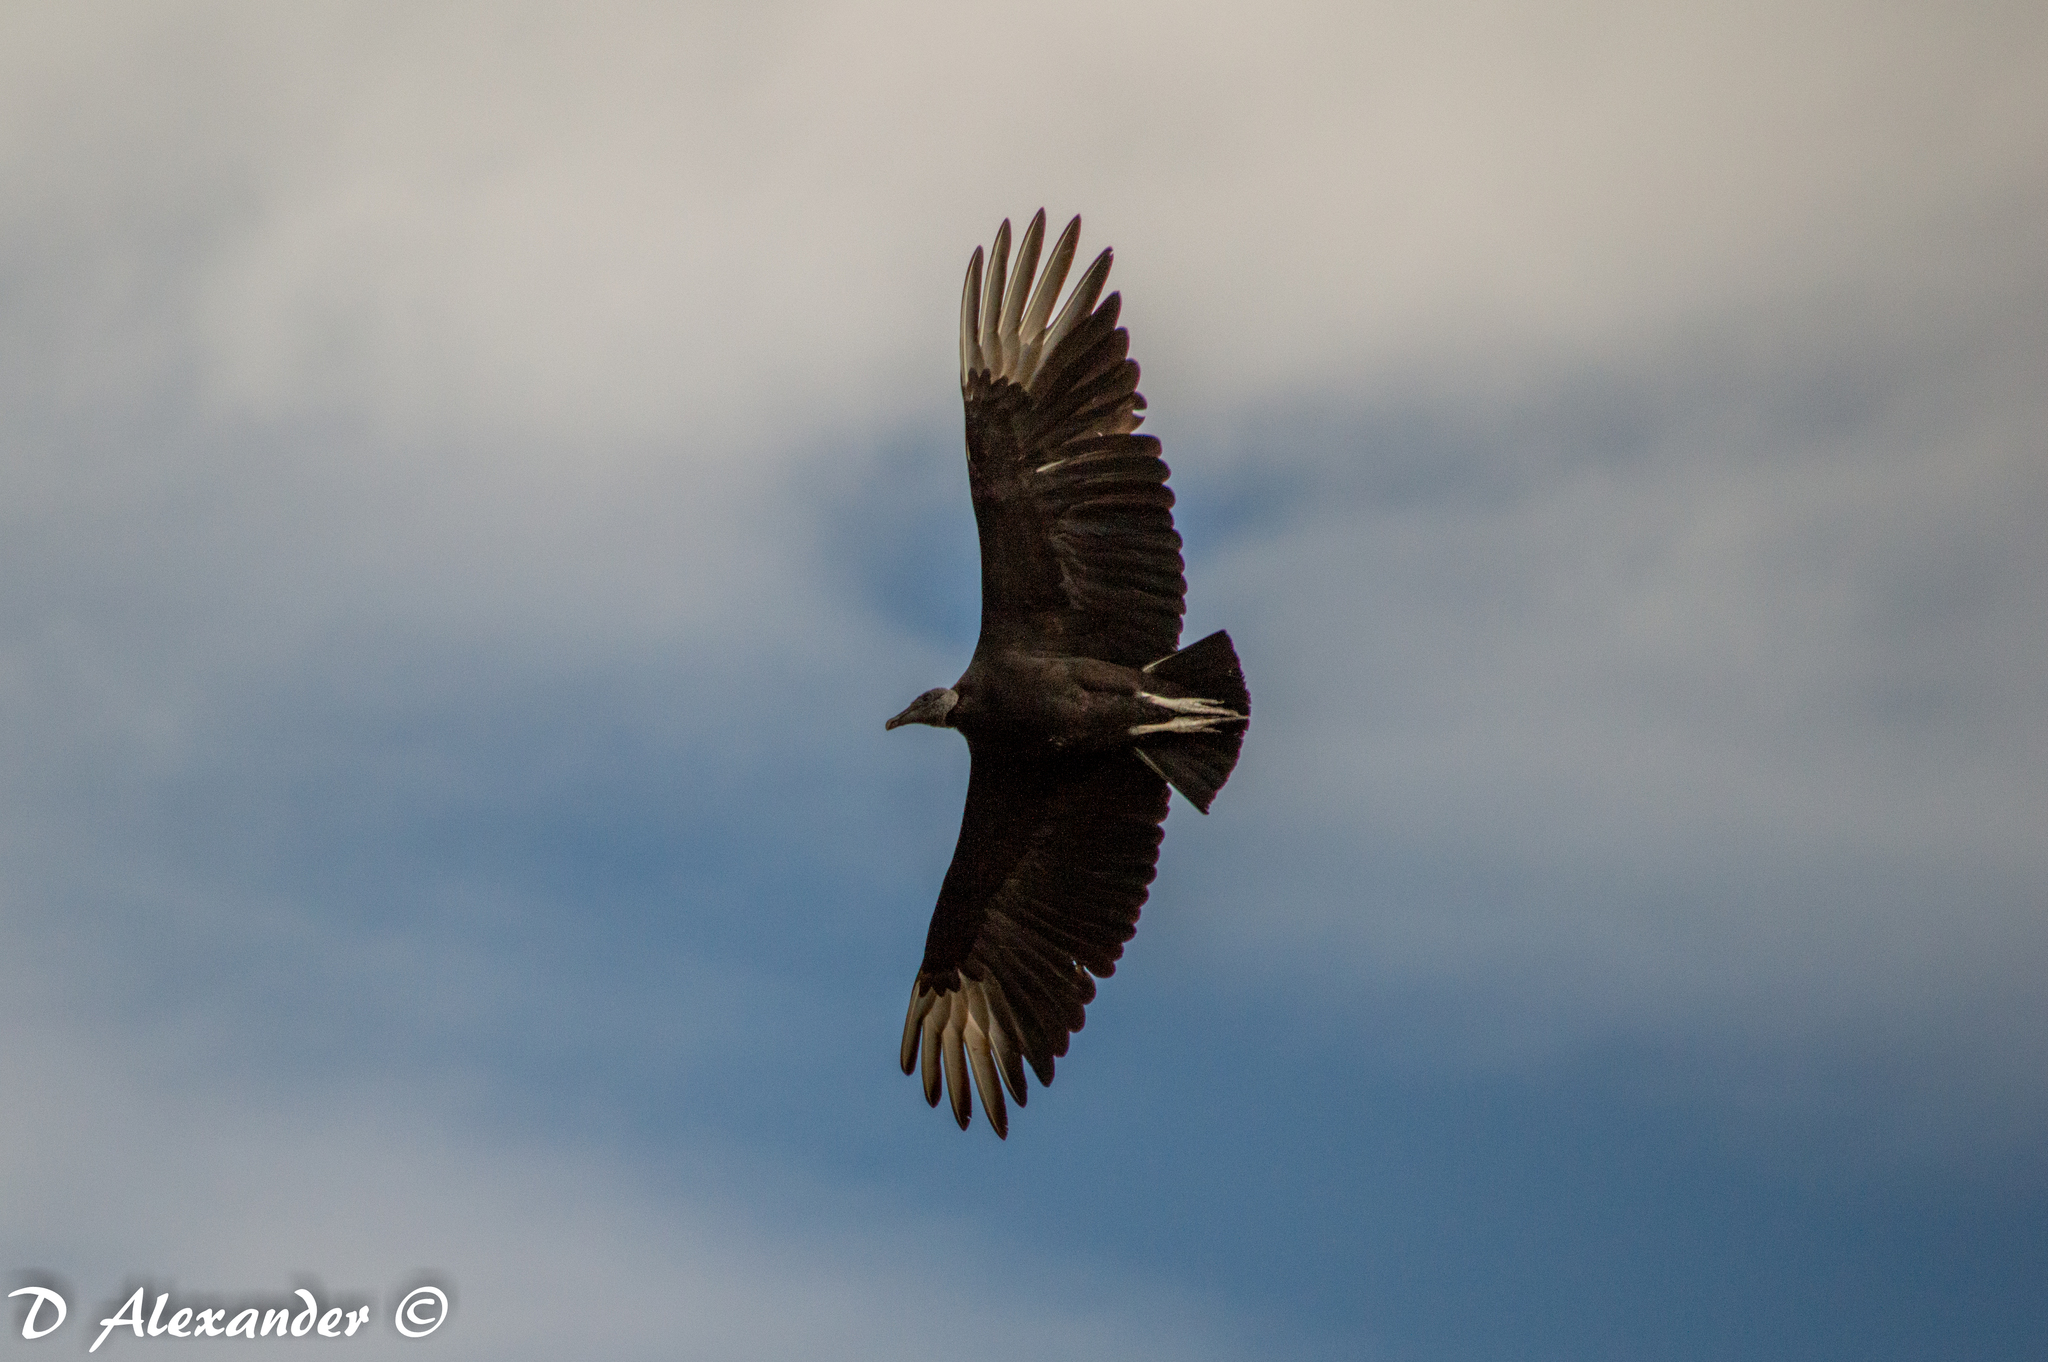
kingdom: Animalia
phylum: Chordata
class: Aves
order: Accipitriformes
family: Cathartidae
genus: Coragyps
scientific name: Coragyps atratus
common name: Black vulture
